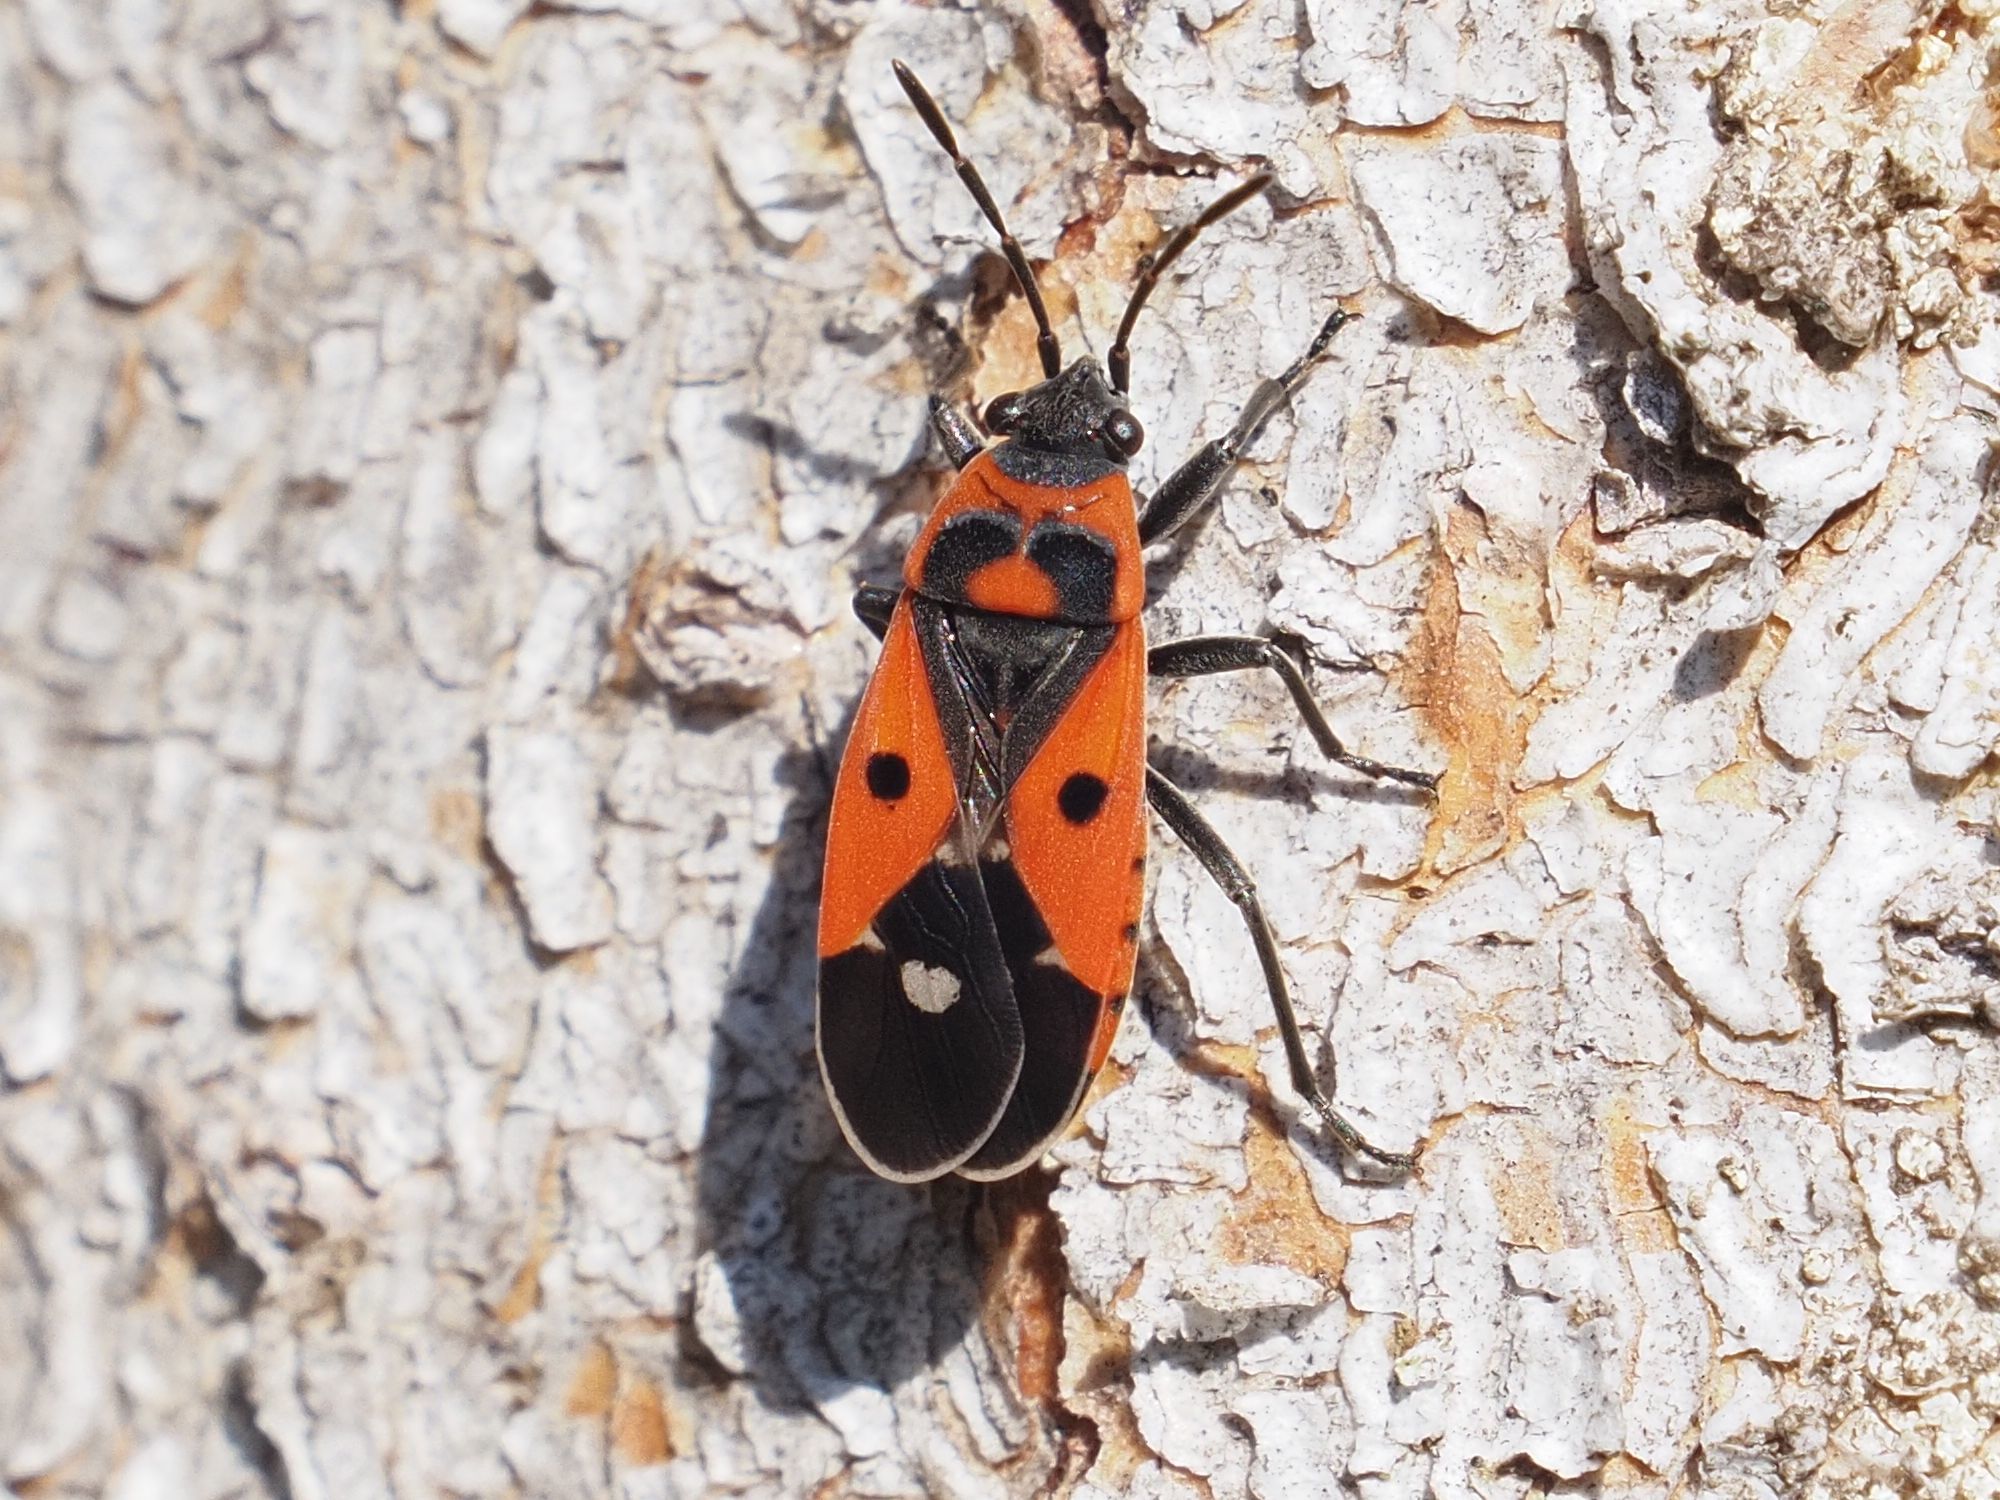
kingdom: Animalia
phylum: Arthropoda
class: Insecta
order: Hemiptera
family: Lygaeidae
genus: Melanocoryphus
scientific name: Melanocoryphus albomaculatus
